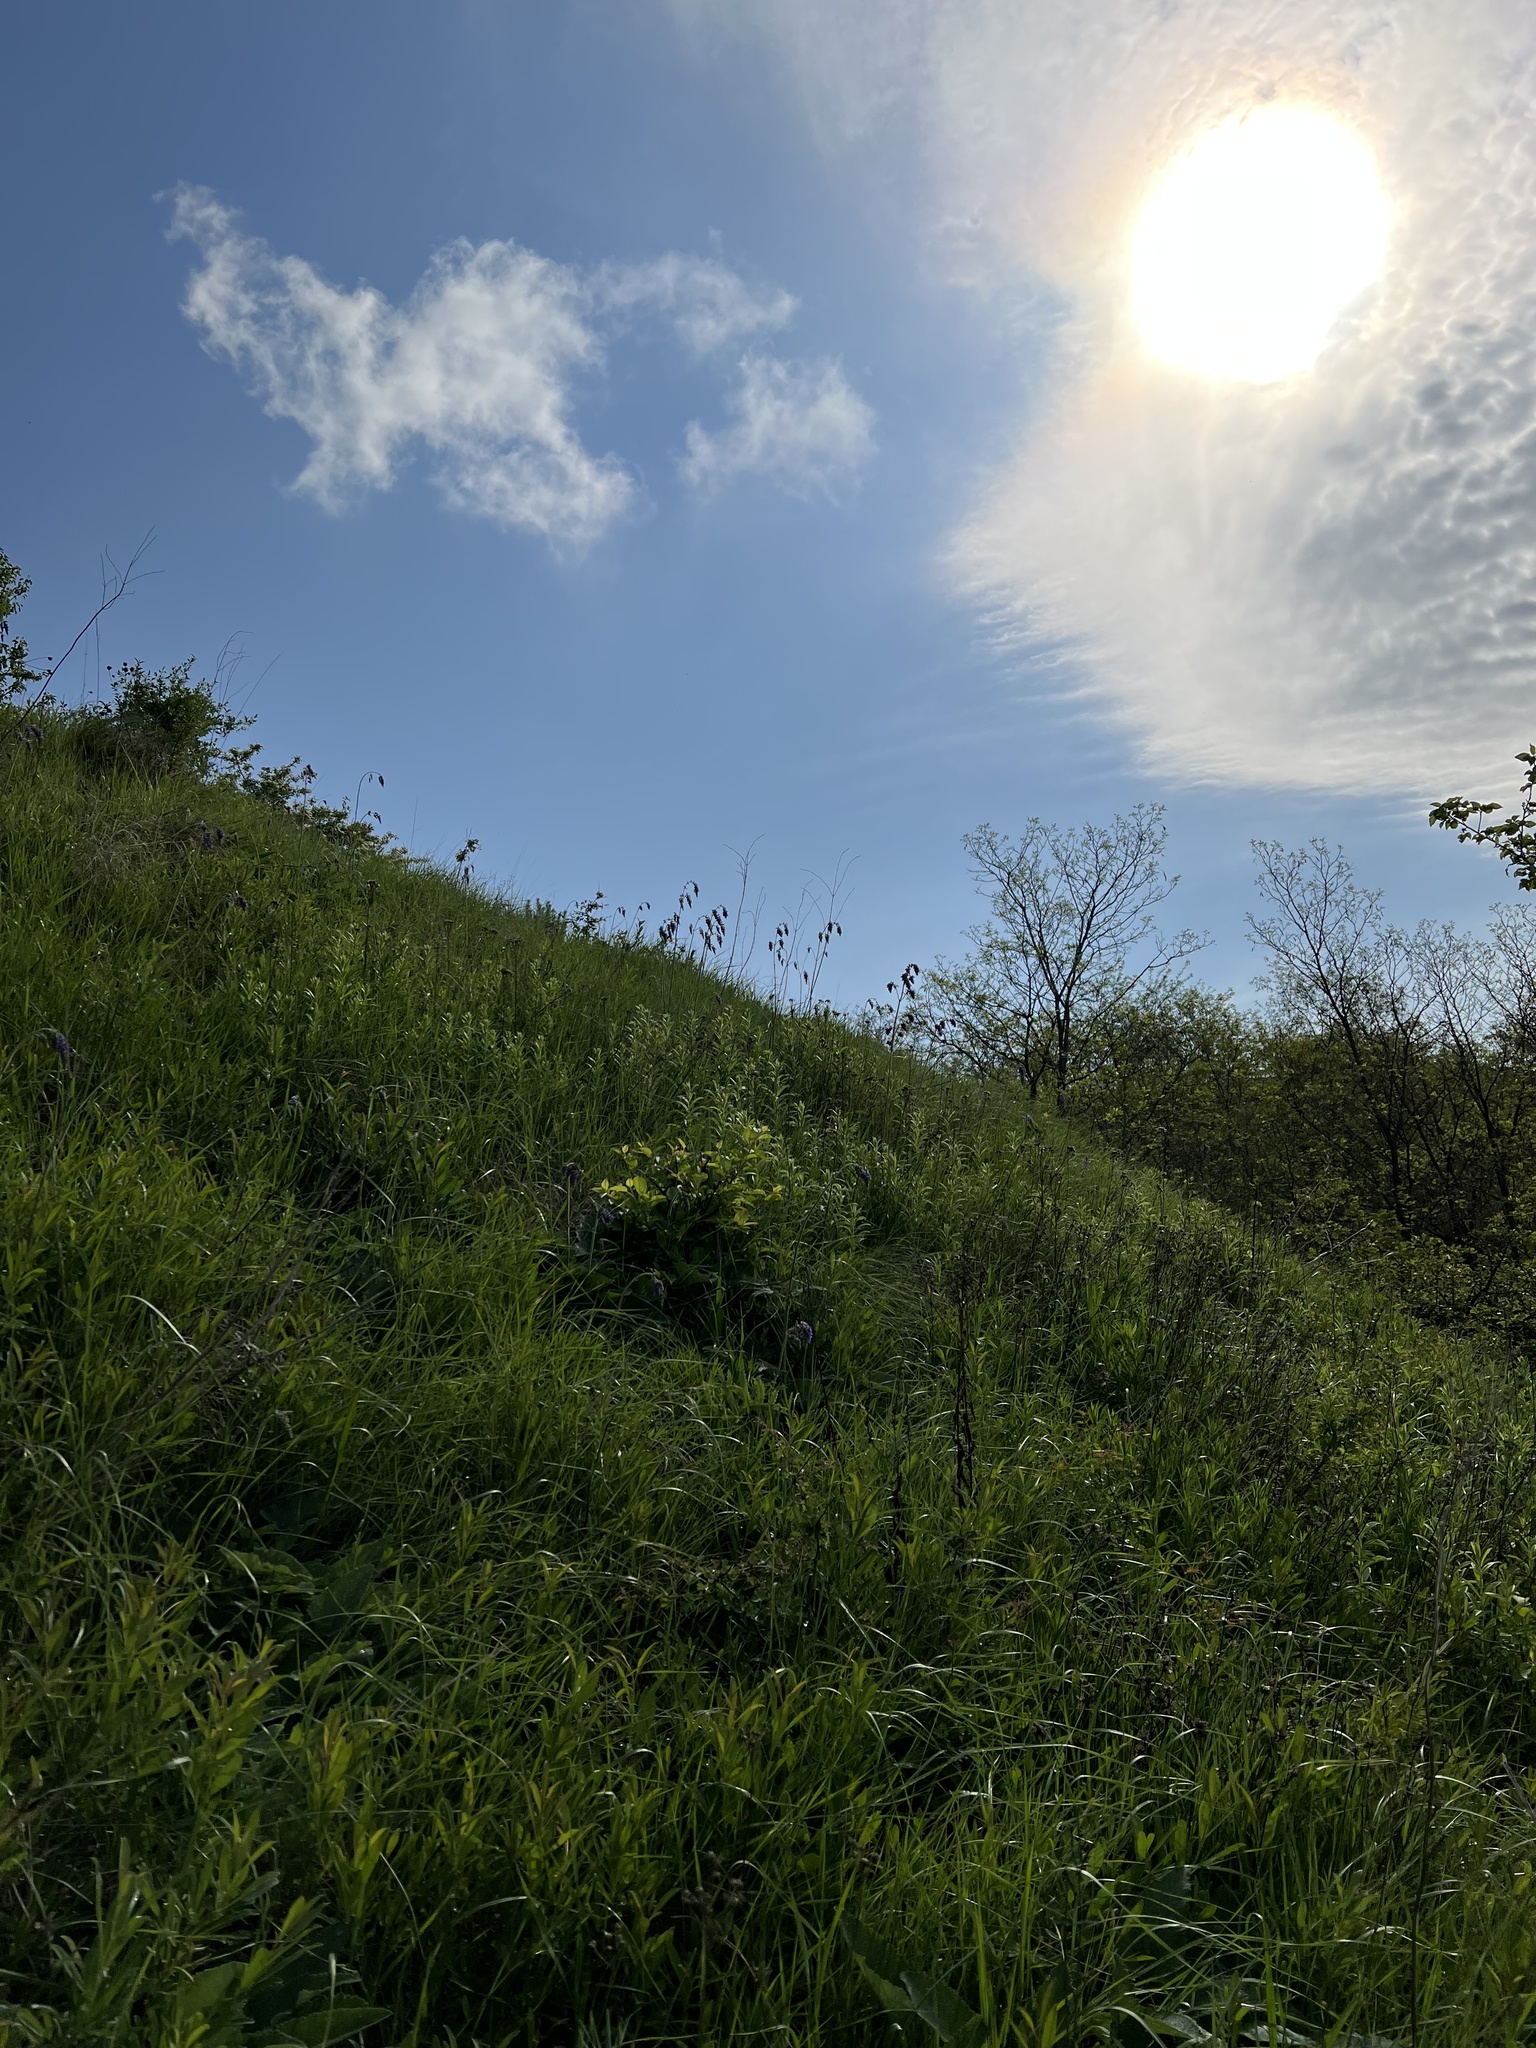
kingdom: Plantae
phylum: Tracheophyta
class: Magnoliopsida
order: Lamiales
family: Lamiaceae
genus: Salvia
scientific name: Salvia nutans
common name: Nodding sage
